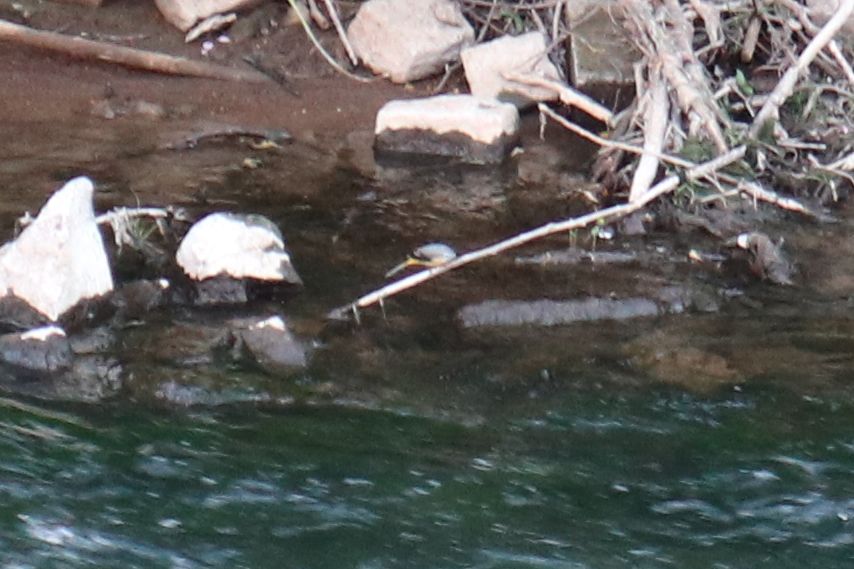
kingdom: Animalia
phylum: Chordata
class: Aves
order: Passeriformes
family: Motacillidae
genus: Motacilla
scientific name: Motacilla cinerea
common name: Grey wagtail
